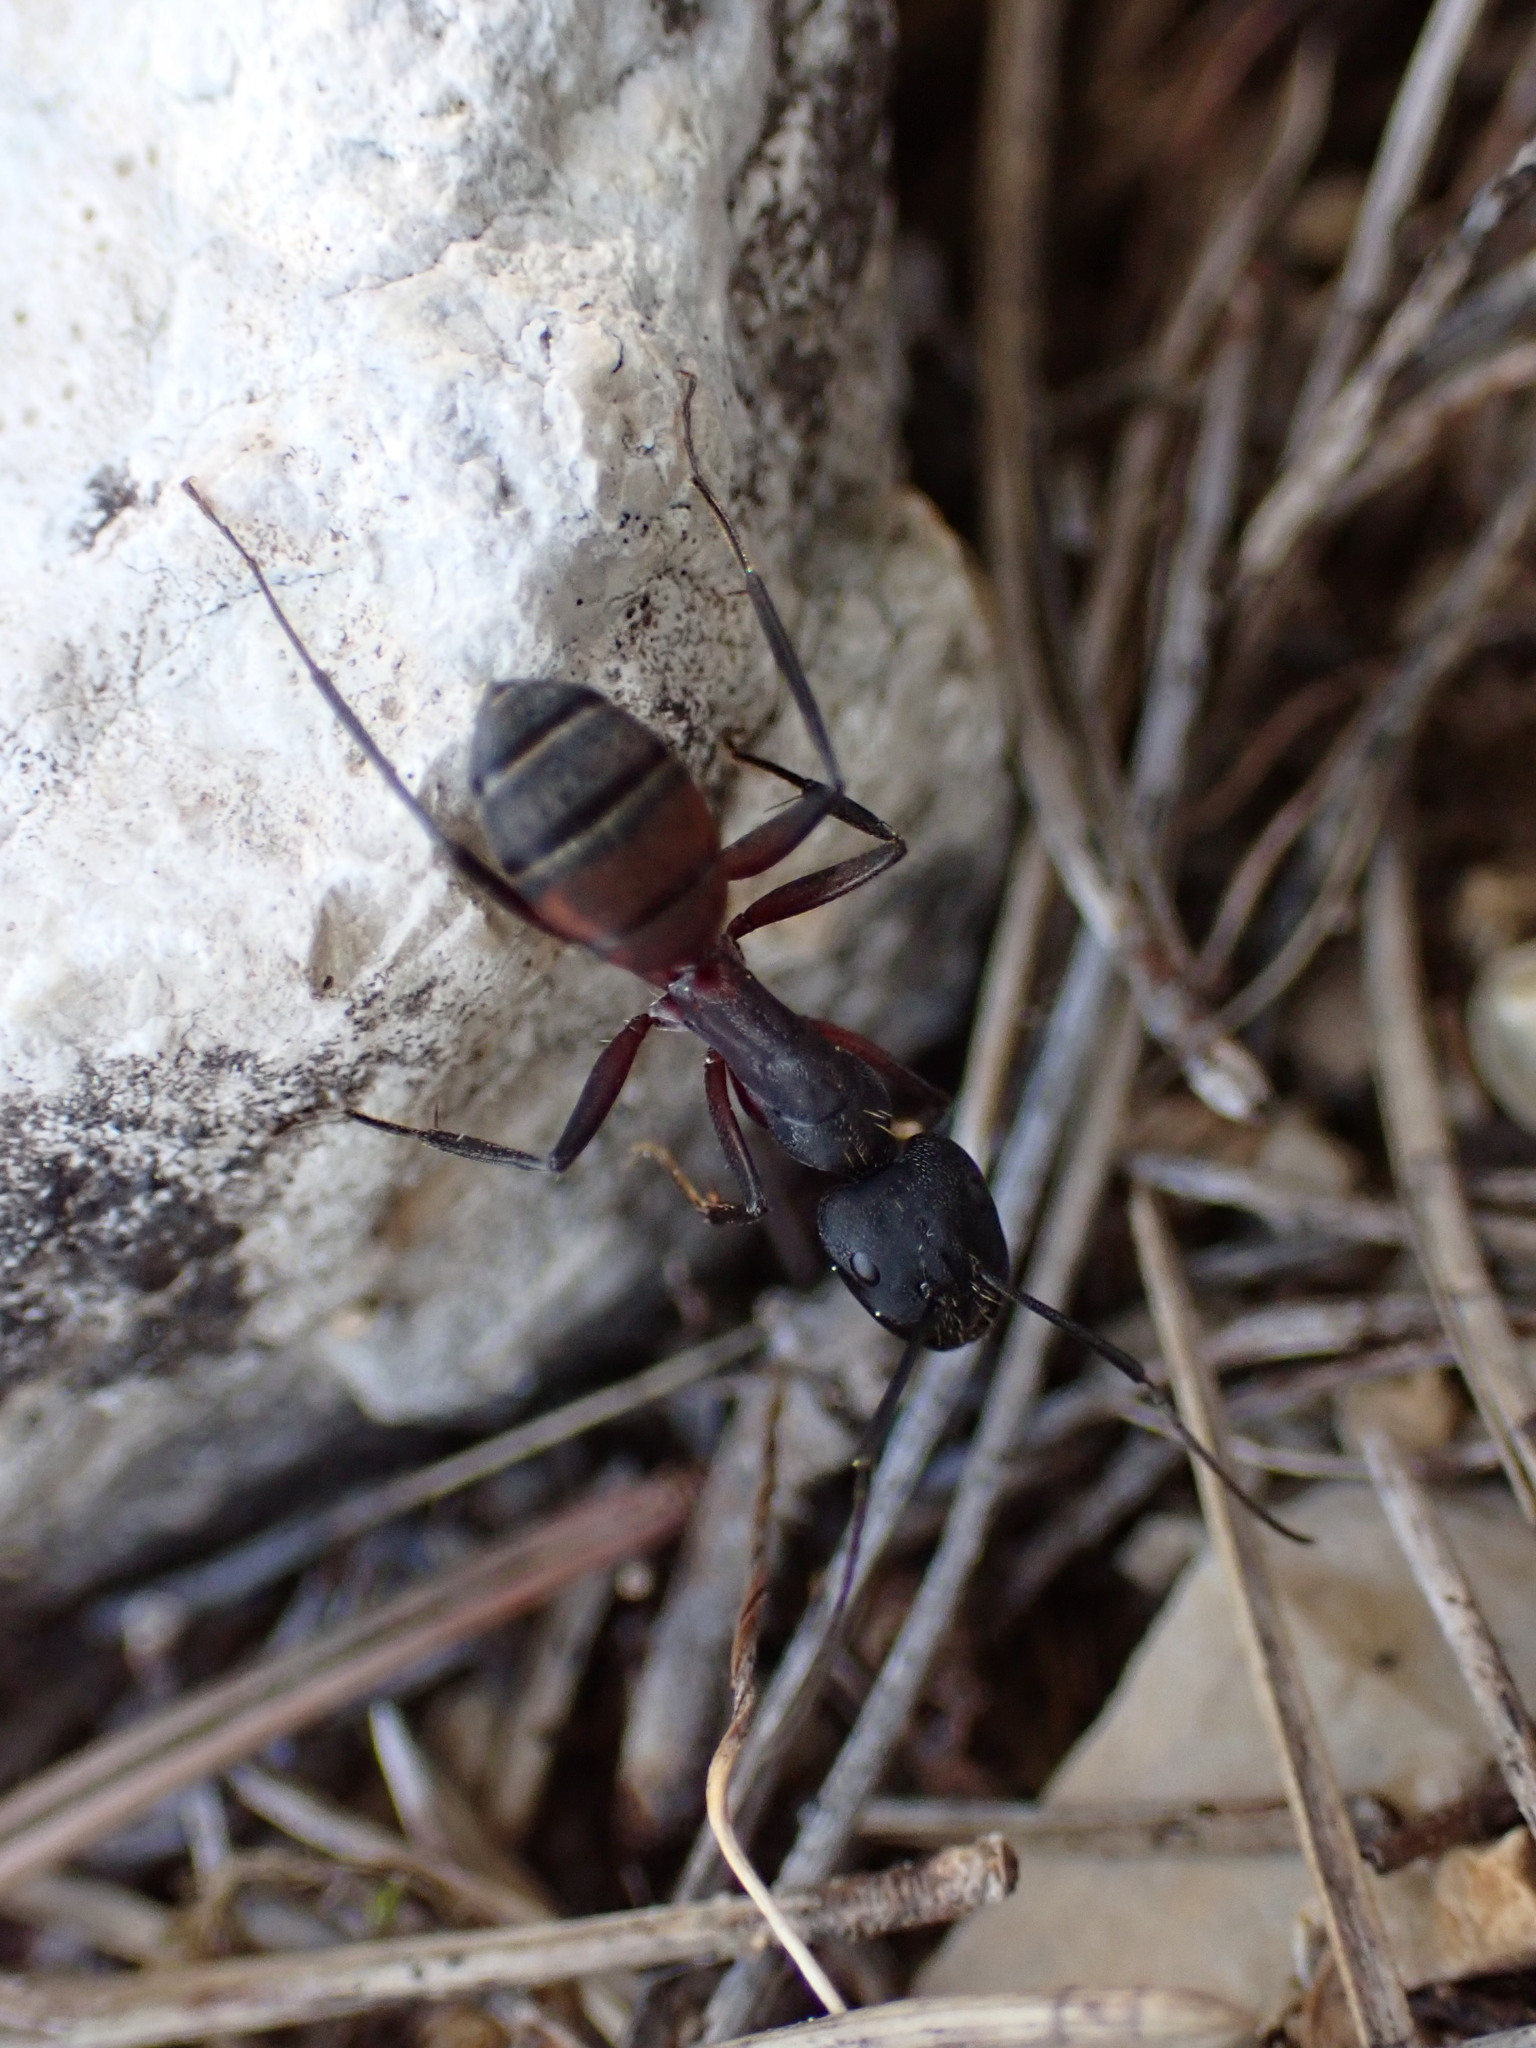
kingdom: Animalia
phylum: Arthropoda
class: Insecta
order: Hymenoptera
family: Formicidae
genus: Camponotus
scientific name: Camponotus cruentatus
